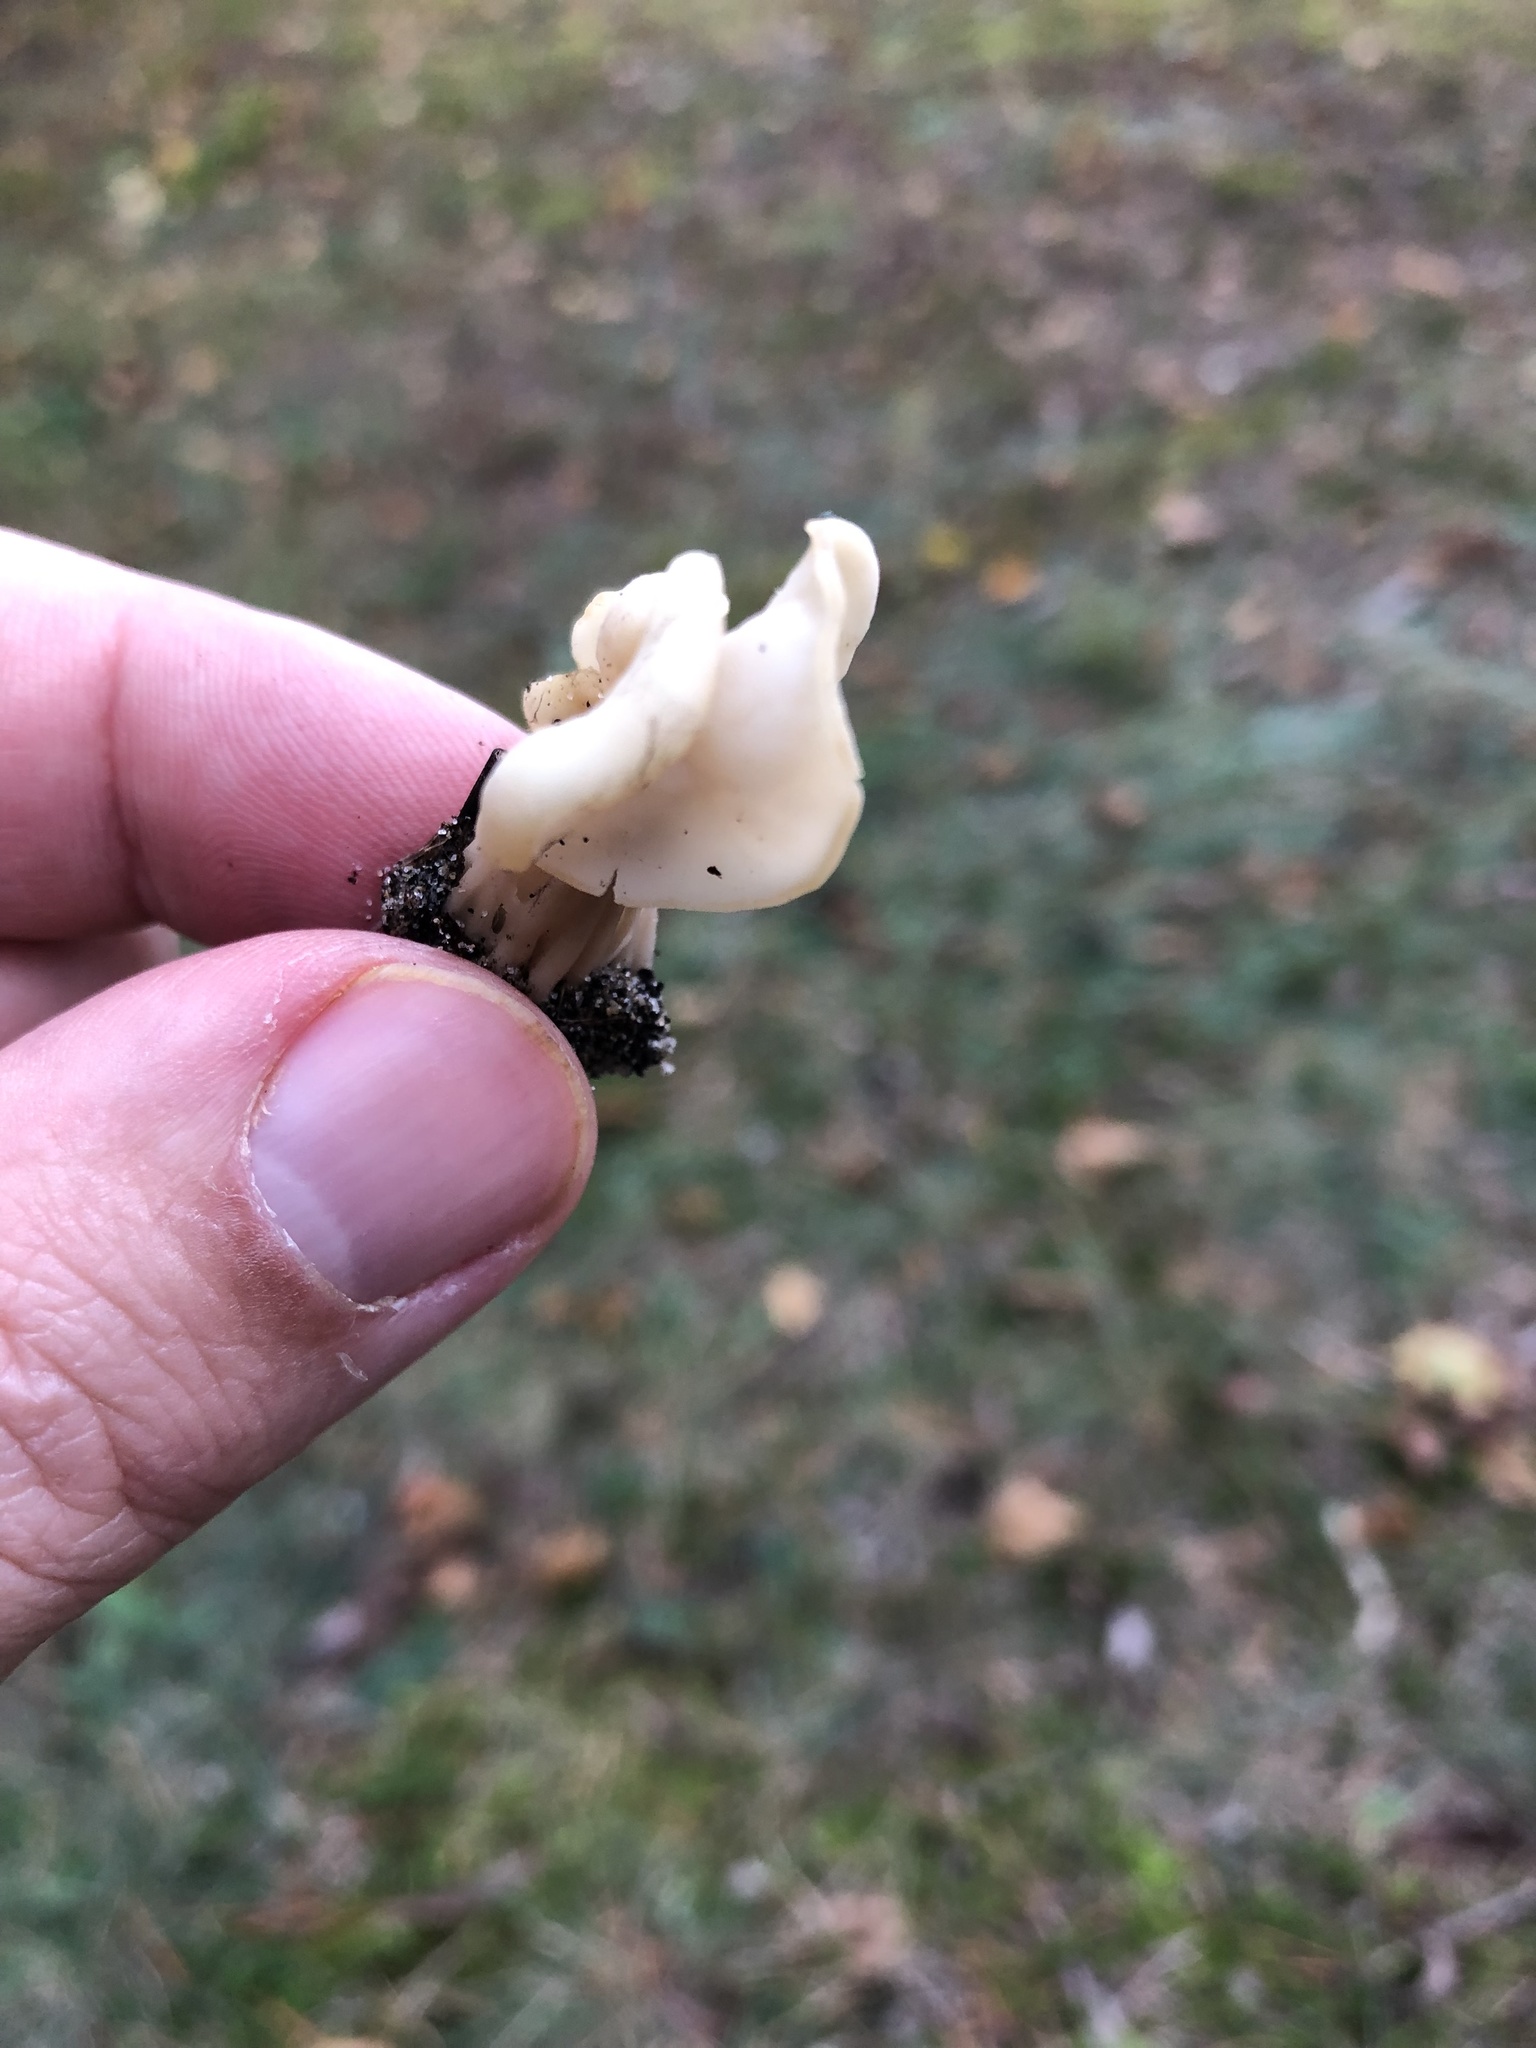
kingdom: Fungi
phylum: Ascomycota
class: Pezizomycetes
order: Pezizales
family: Helvellaceae
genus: Helvella
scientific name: Helvella crispa
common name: White saddle
